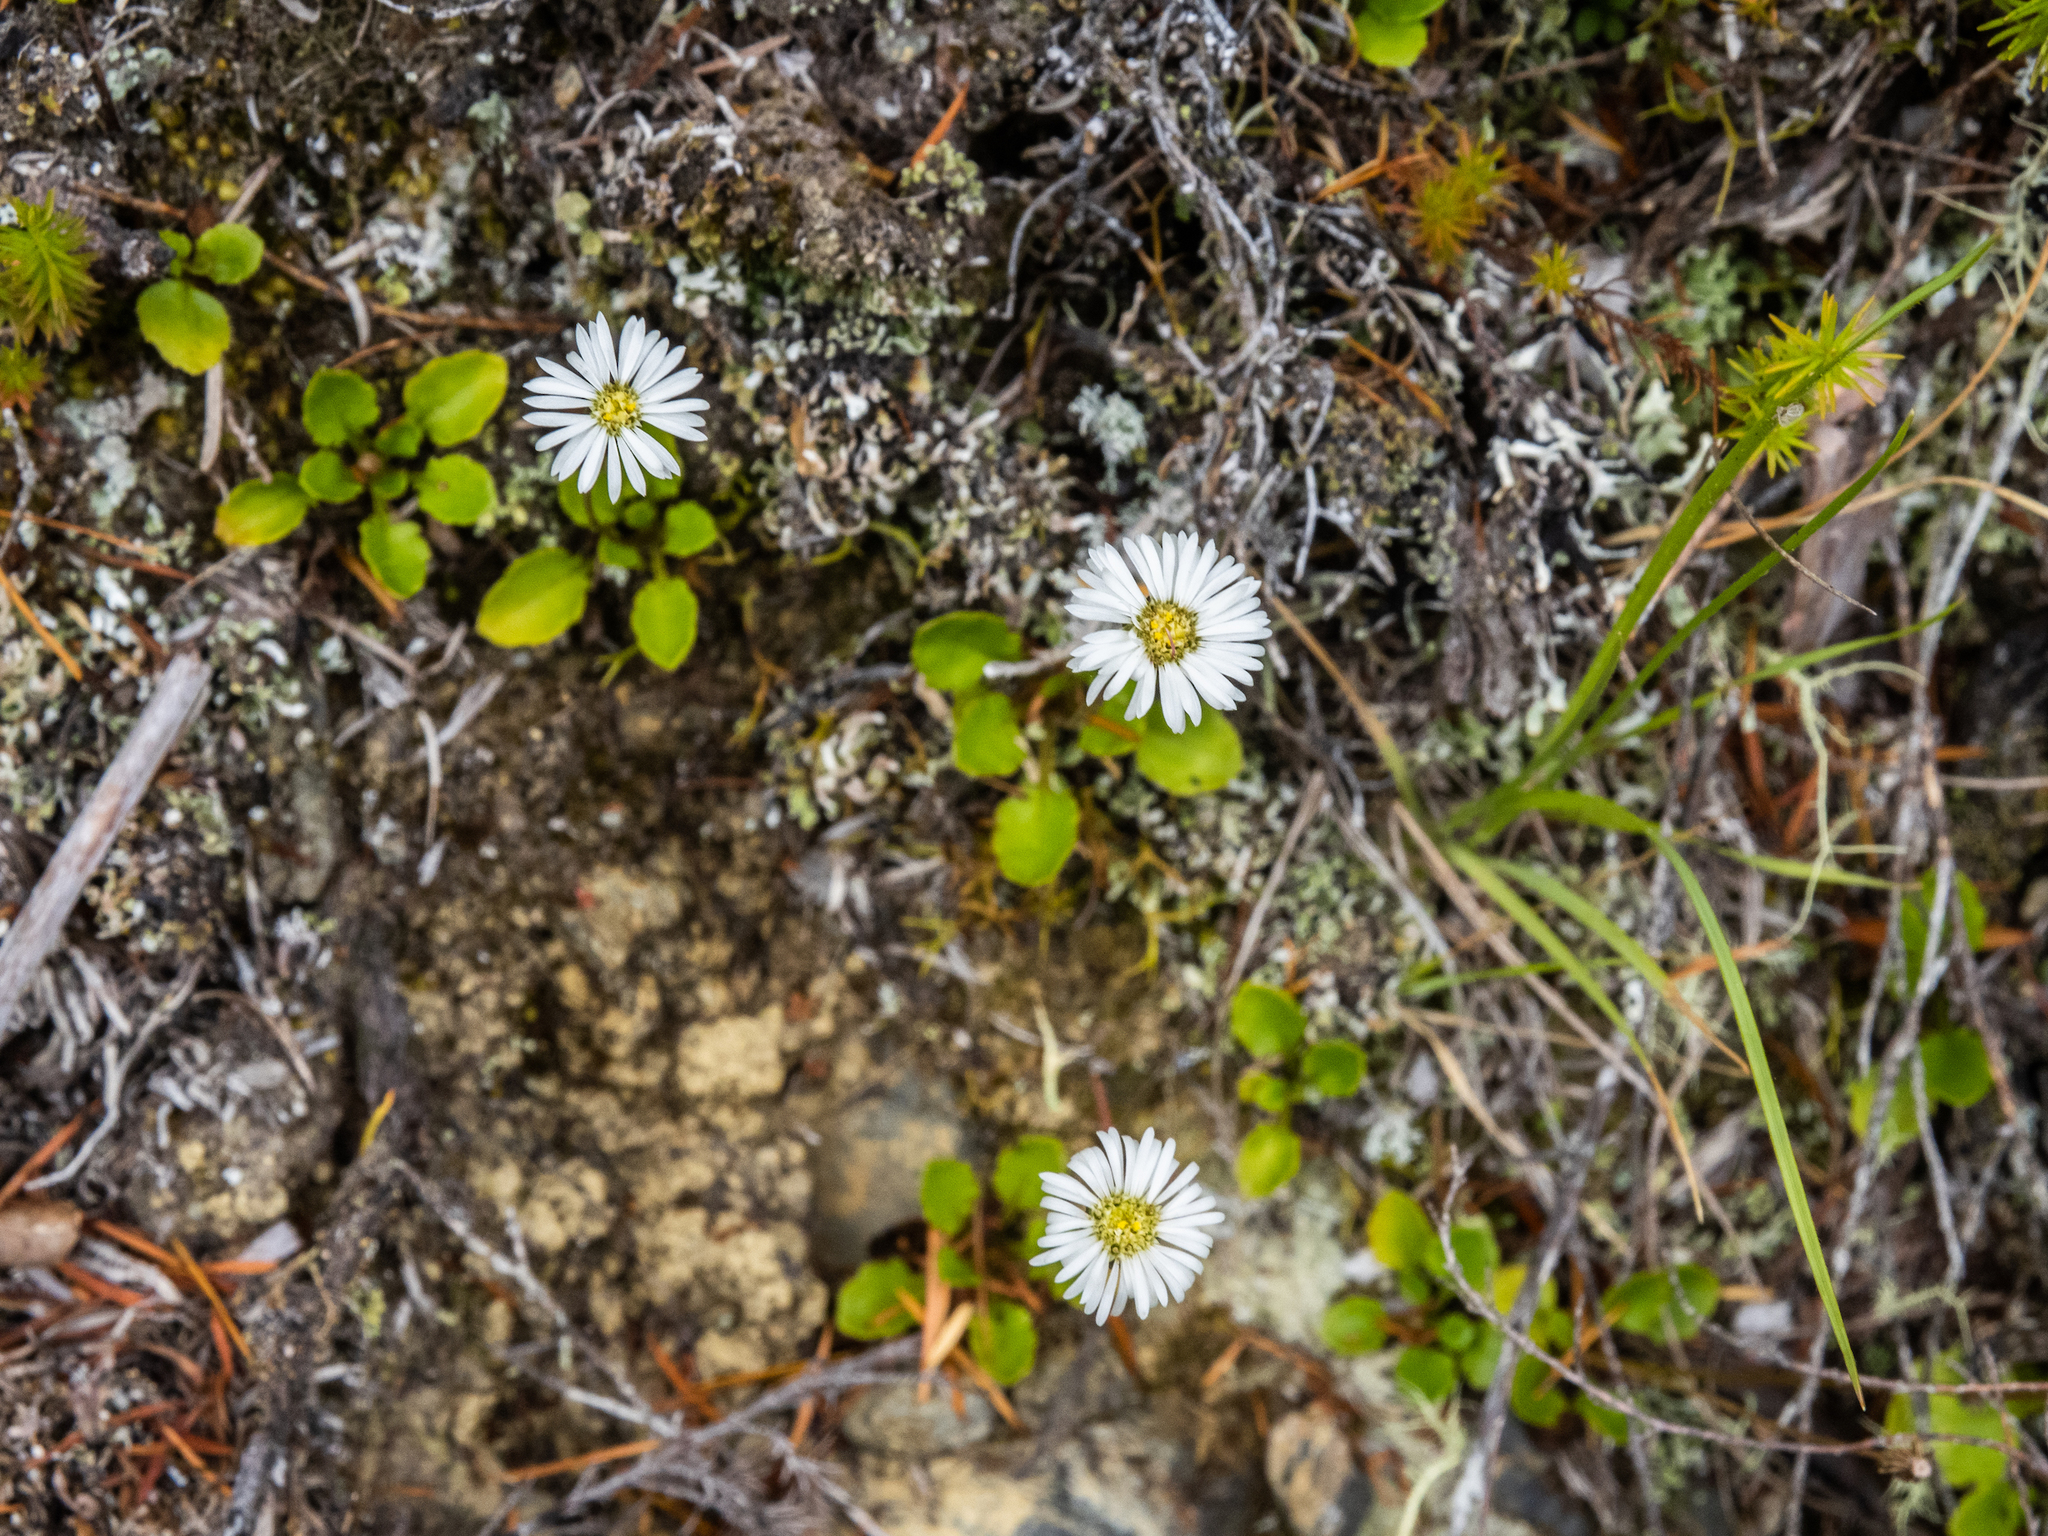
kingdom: Plantae
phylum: Tracheophyta
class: Magnoliopsida
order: Asterales
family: Asteraceae
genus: Lagenophora
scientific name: Lagenophora pumila
